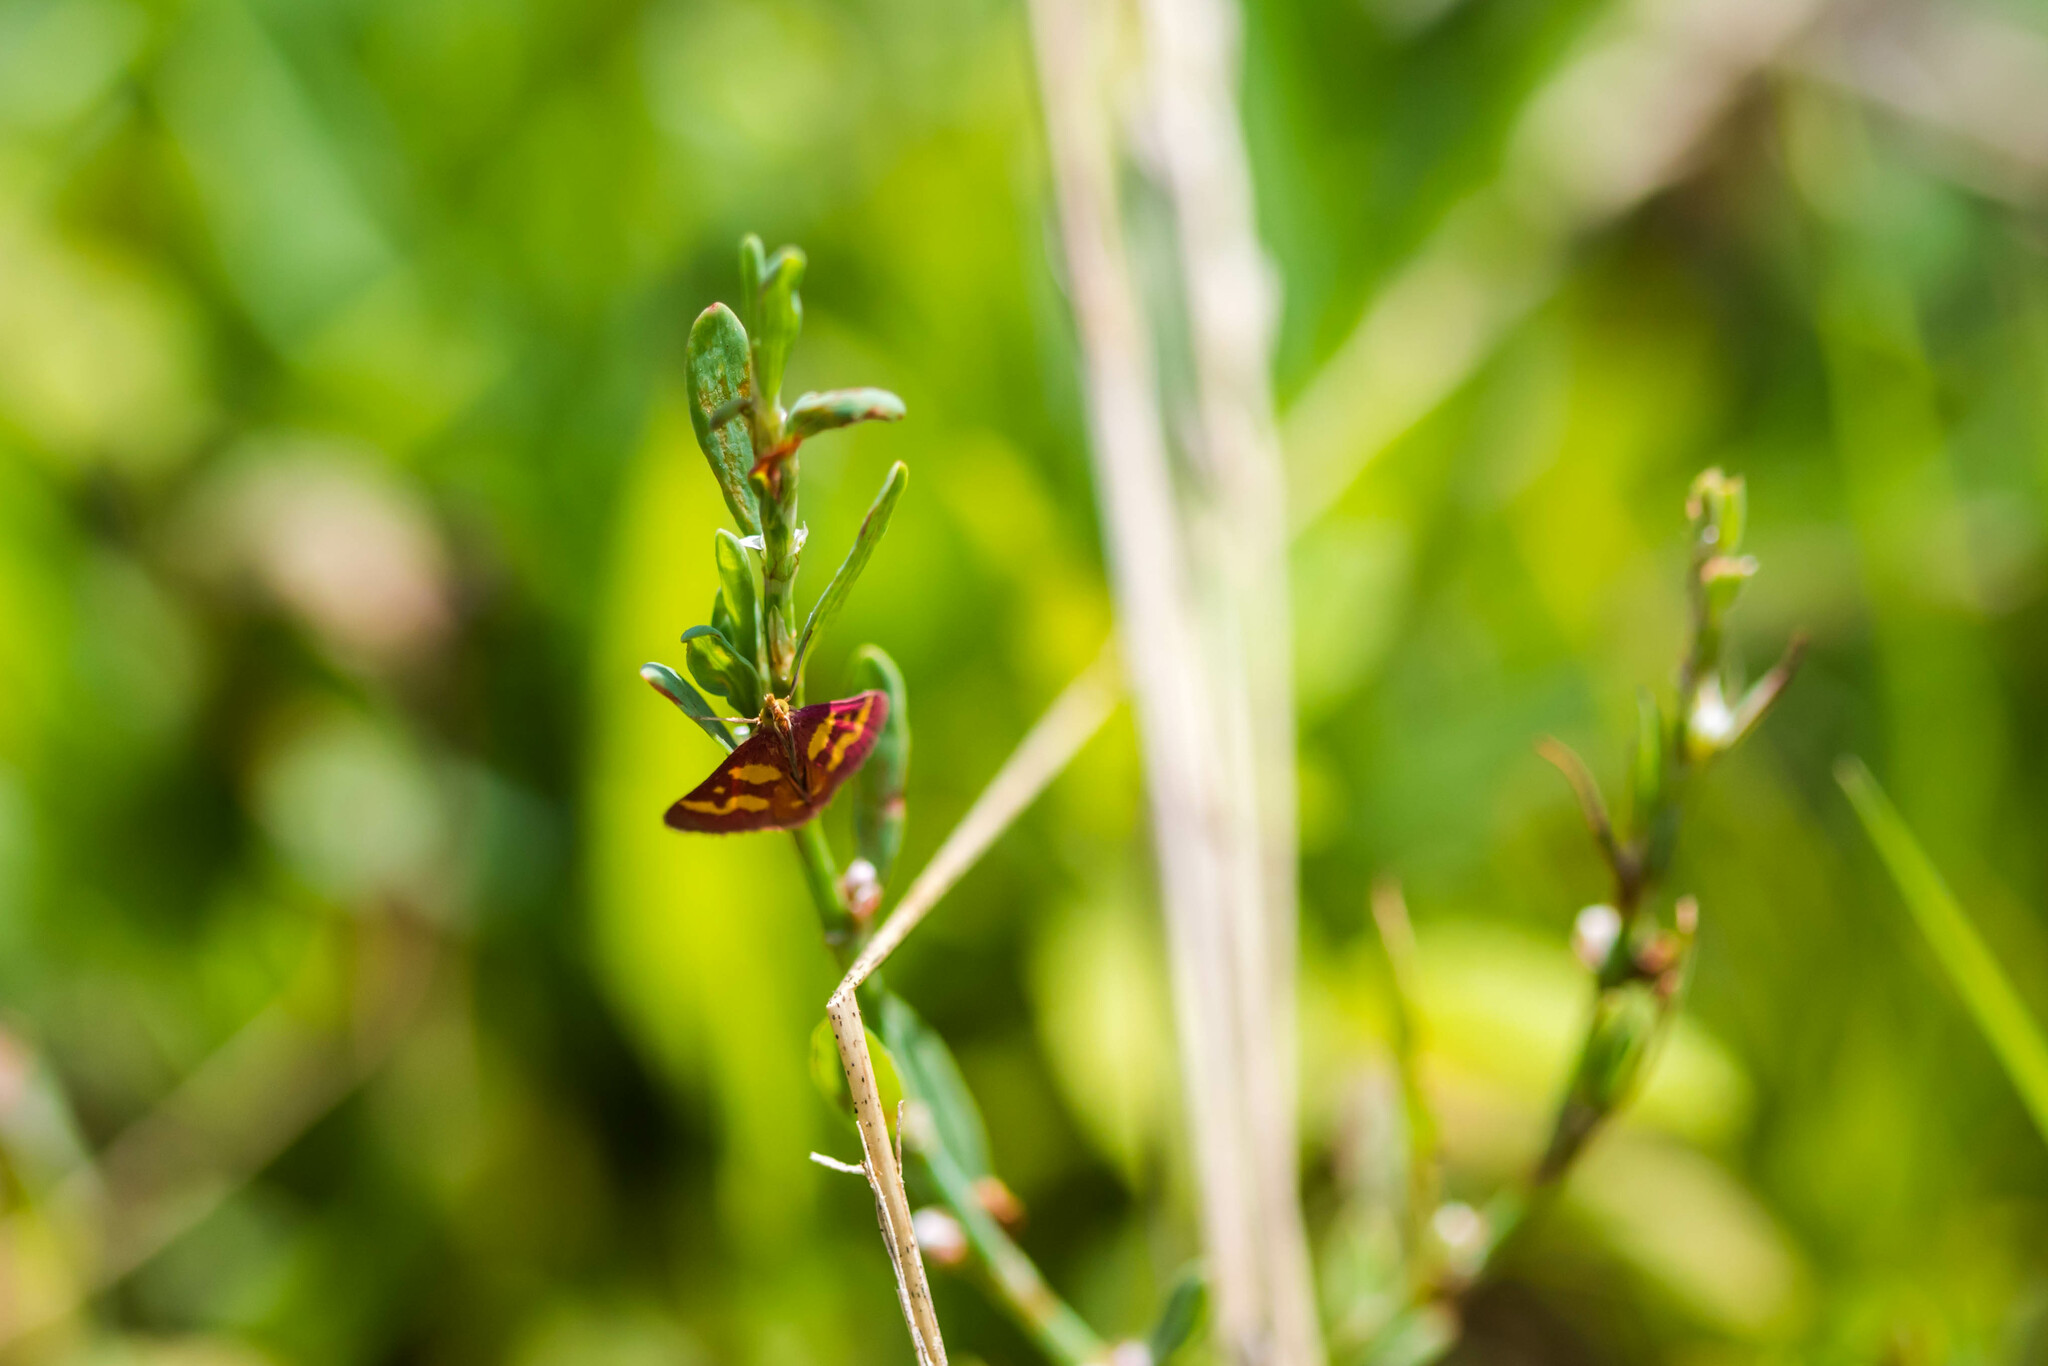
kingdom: Animalia
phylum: Arthropoda
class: Insecta
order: Lepidoptera
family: Crambidae
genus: Pyrausta
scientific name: Pyrausta tyralis
